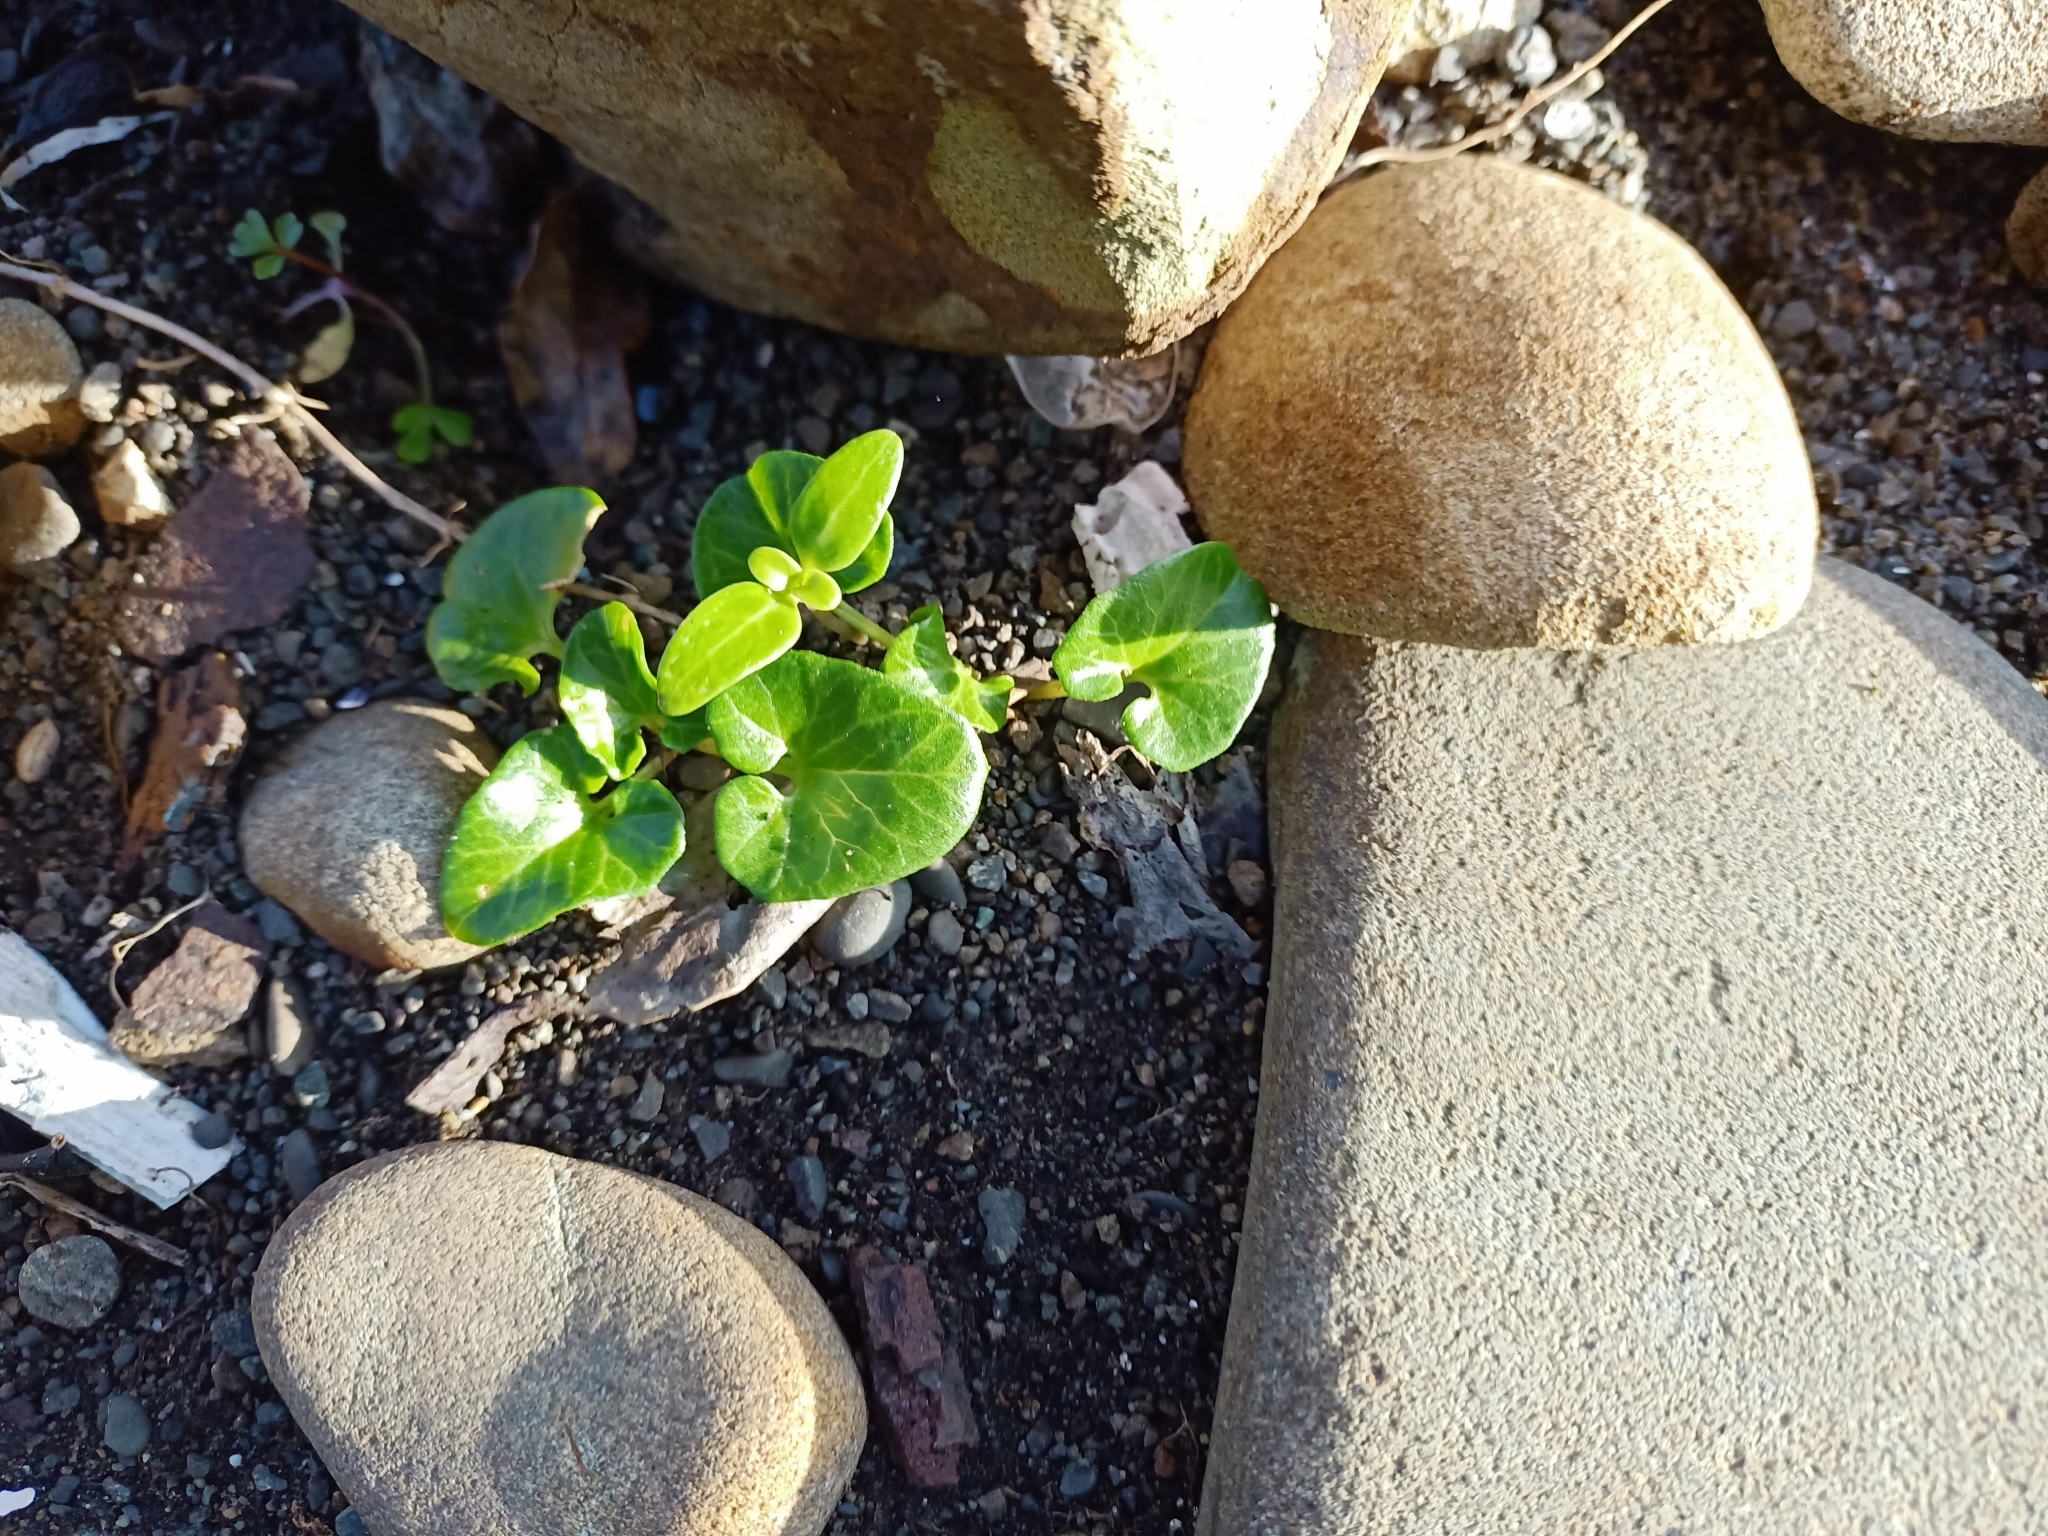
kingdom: Plantae
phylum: Tracheophyta
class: Magnoliopsida
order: Solanales
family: Convolvulaceae
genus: Calystegia
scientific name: Calystegia soldanella
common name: Sea bindweed
